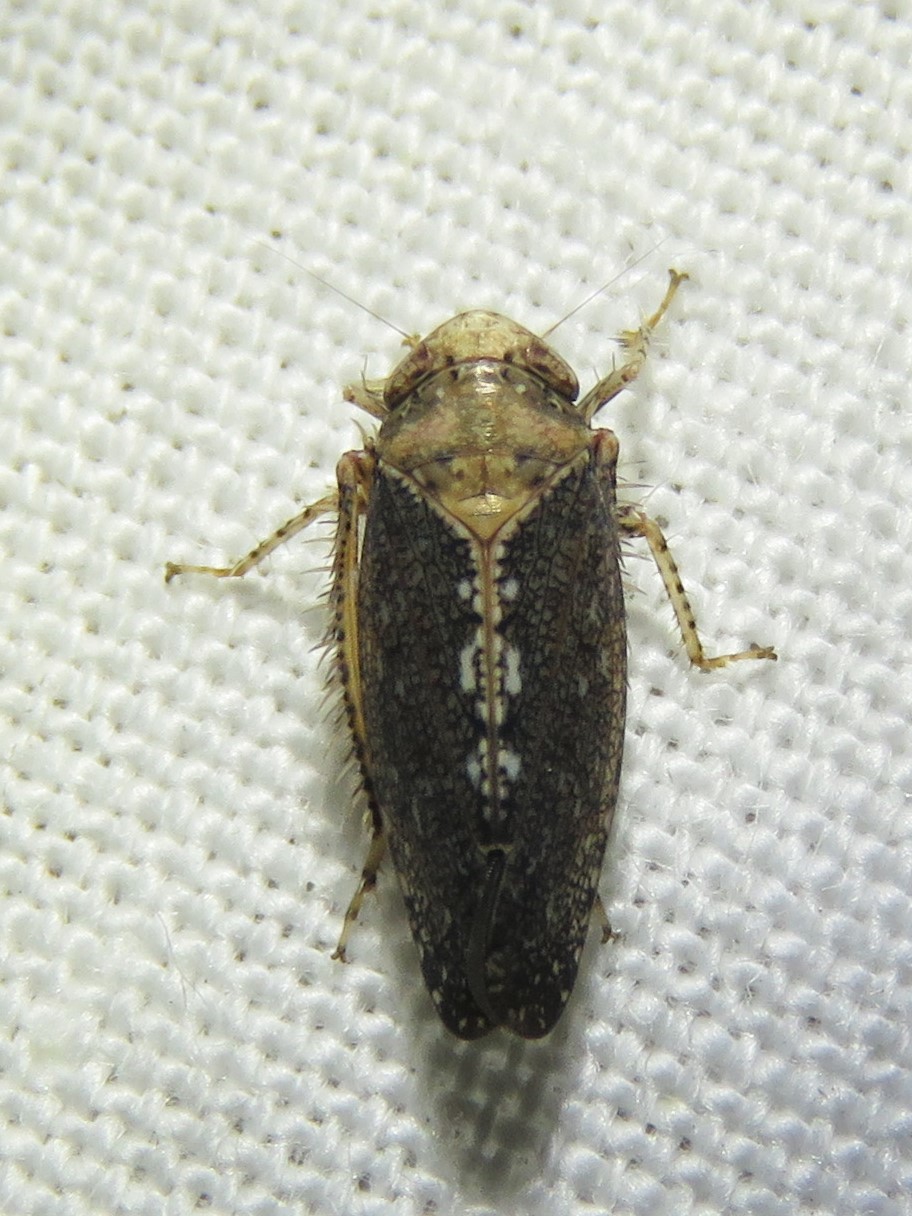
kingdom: Animalia
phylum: Arthropoda
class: Insecta
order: Hemiptera
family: Cicadellidae
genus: Excultanus
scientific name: Excultanus excultus
